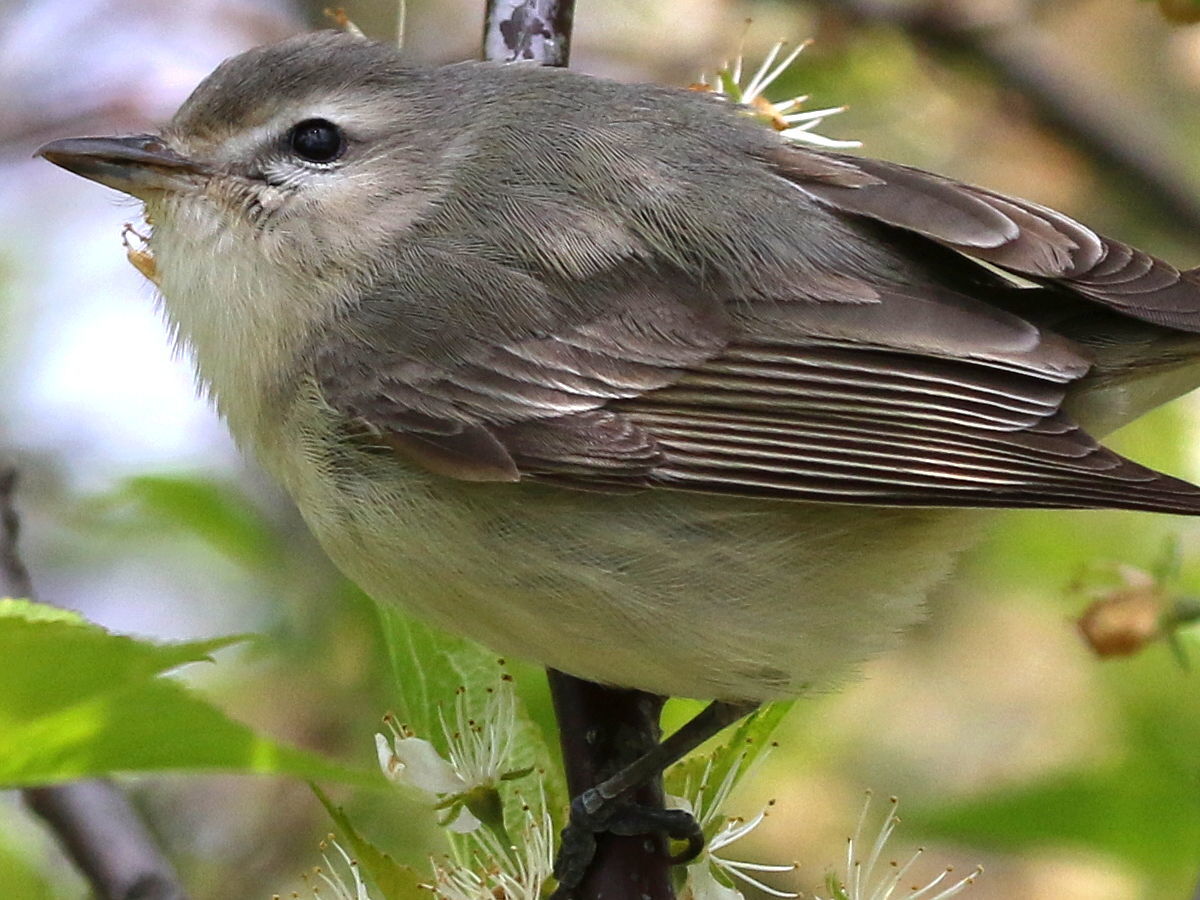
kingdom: Animalia
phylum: Chordata
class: Aves
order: Passeriformes
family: Vireonidae
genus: Vireo
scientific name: Vireo gilvus
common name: Warbling vireo
